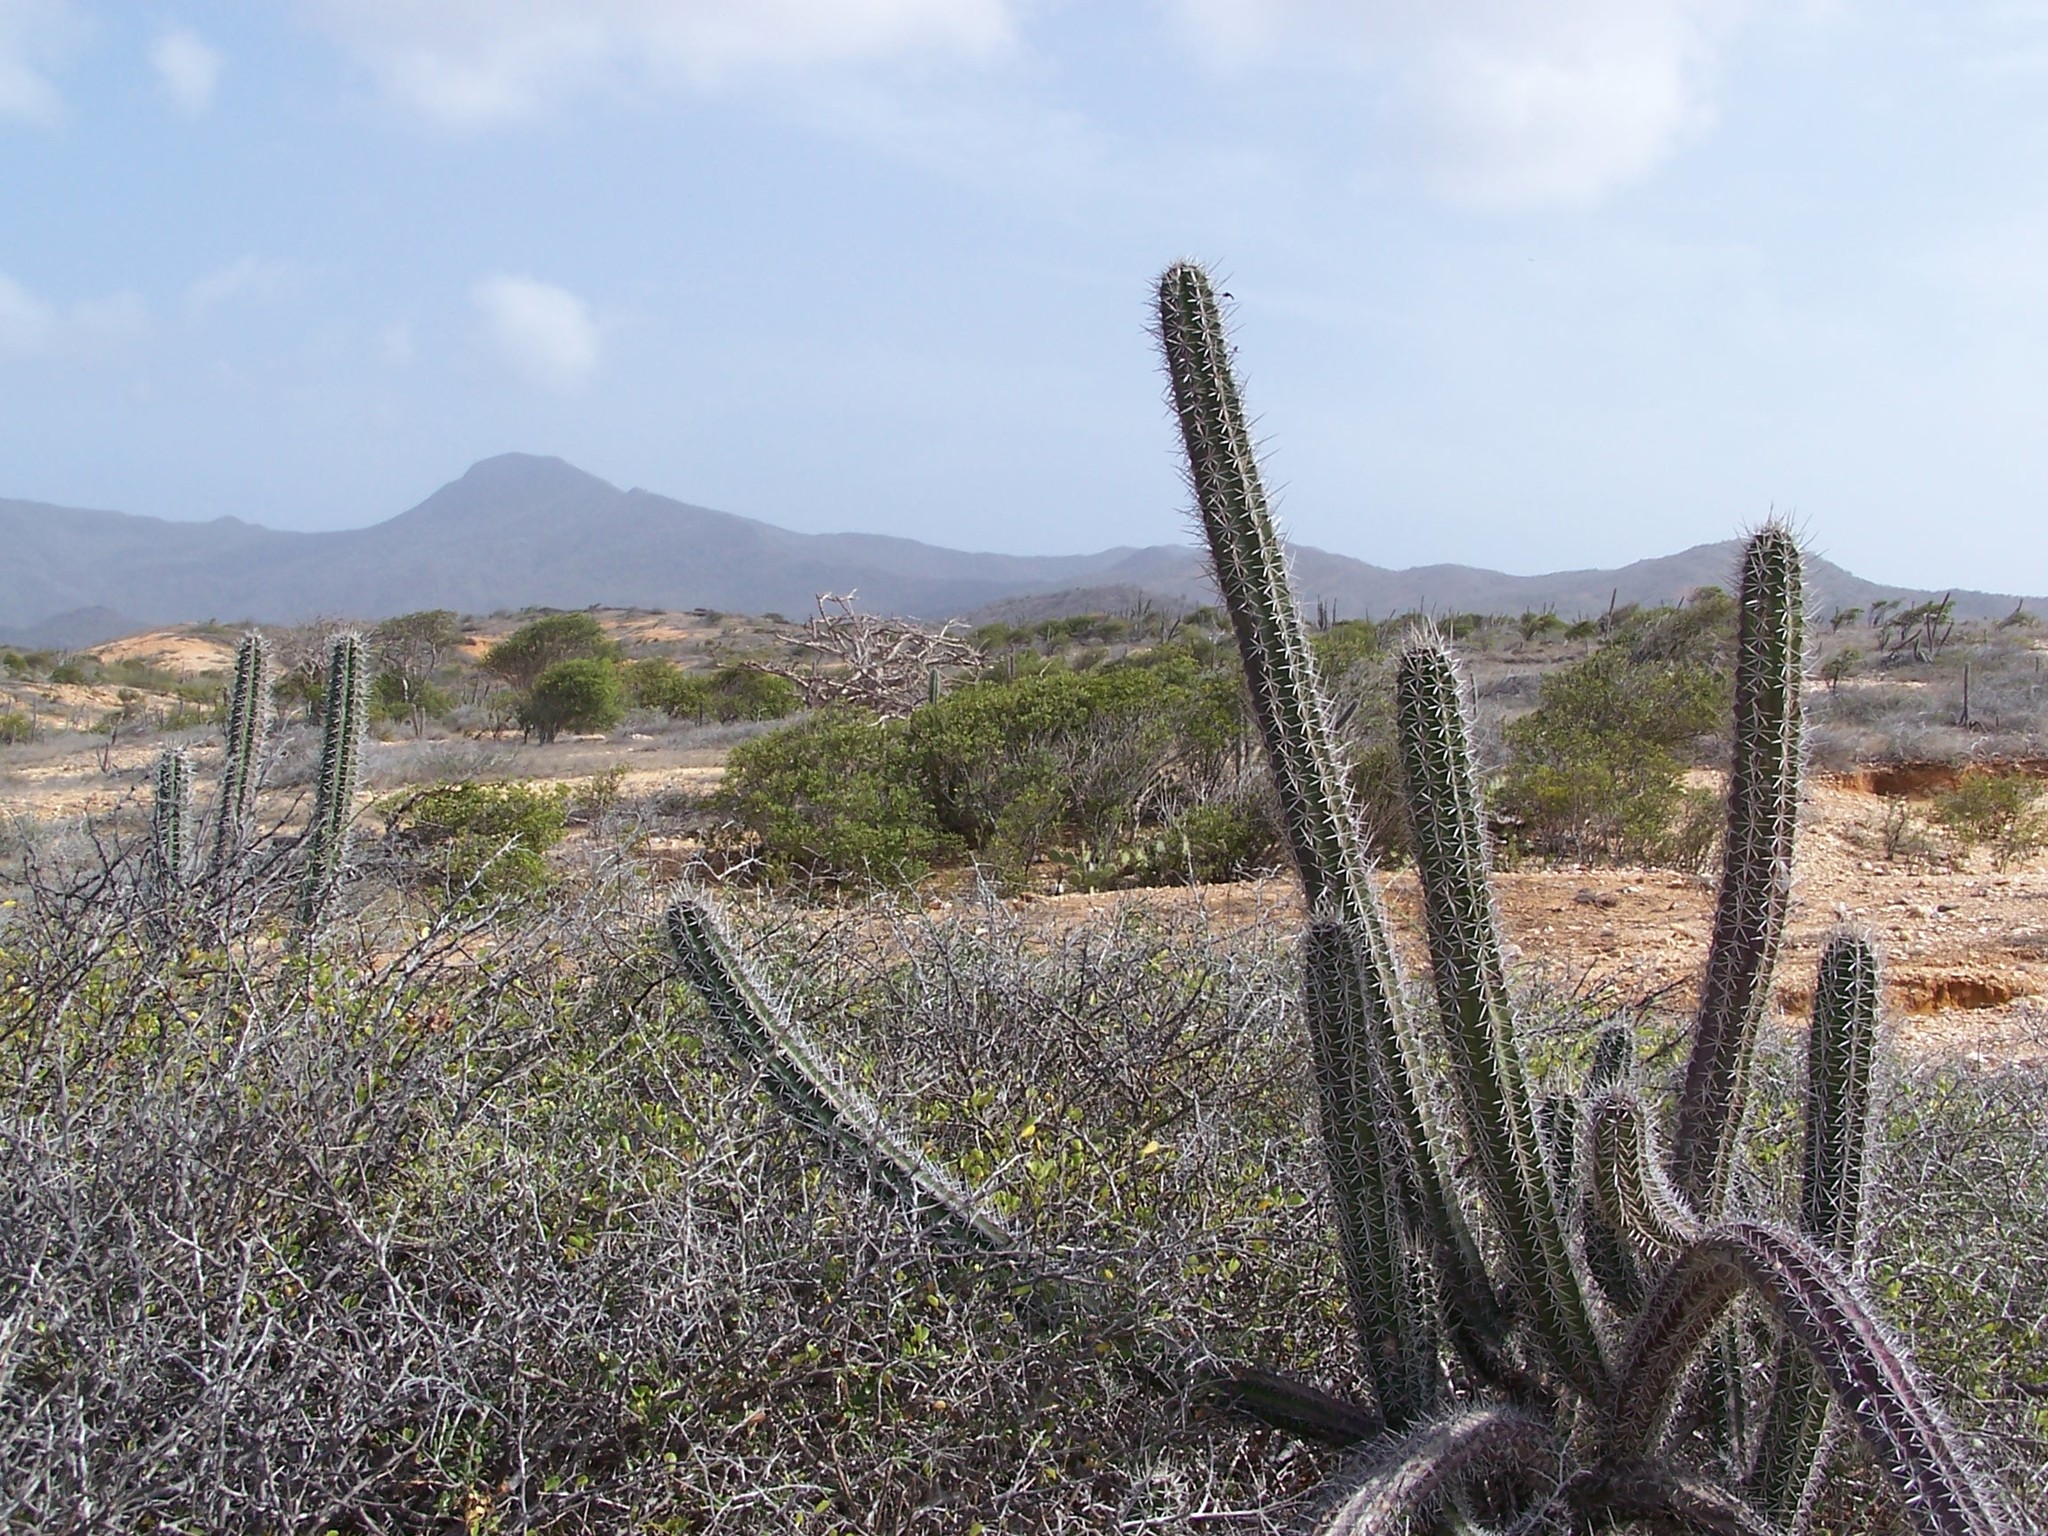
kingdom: Plantae
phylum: Tracheophyta
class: Magnoliopsida
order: Caryophyllales
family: Cactaceae
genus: Stenocereus
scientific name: Stenocereus griseus
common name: Tall candelabra cactus
